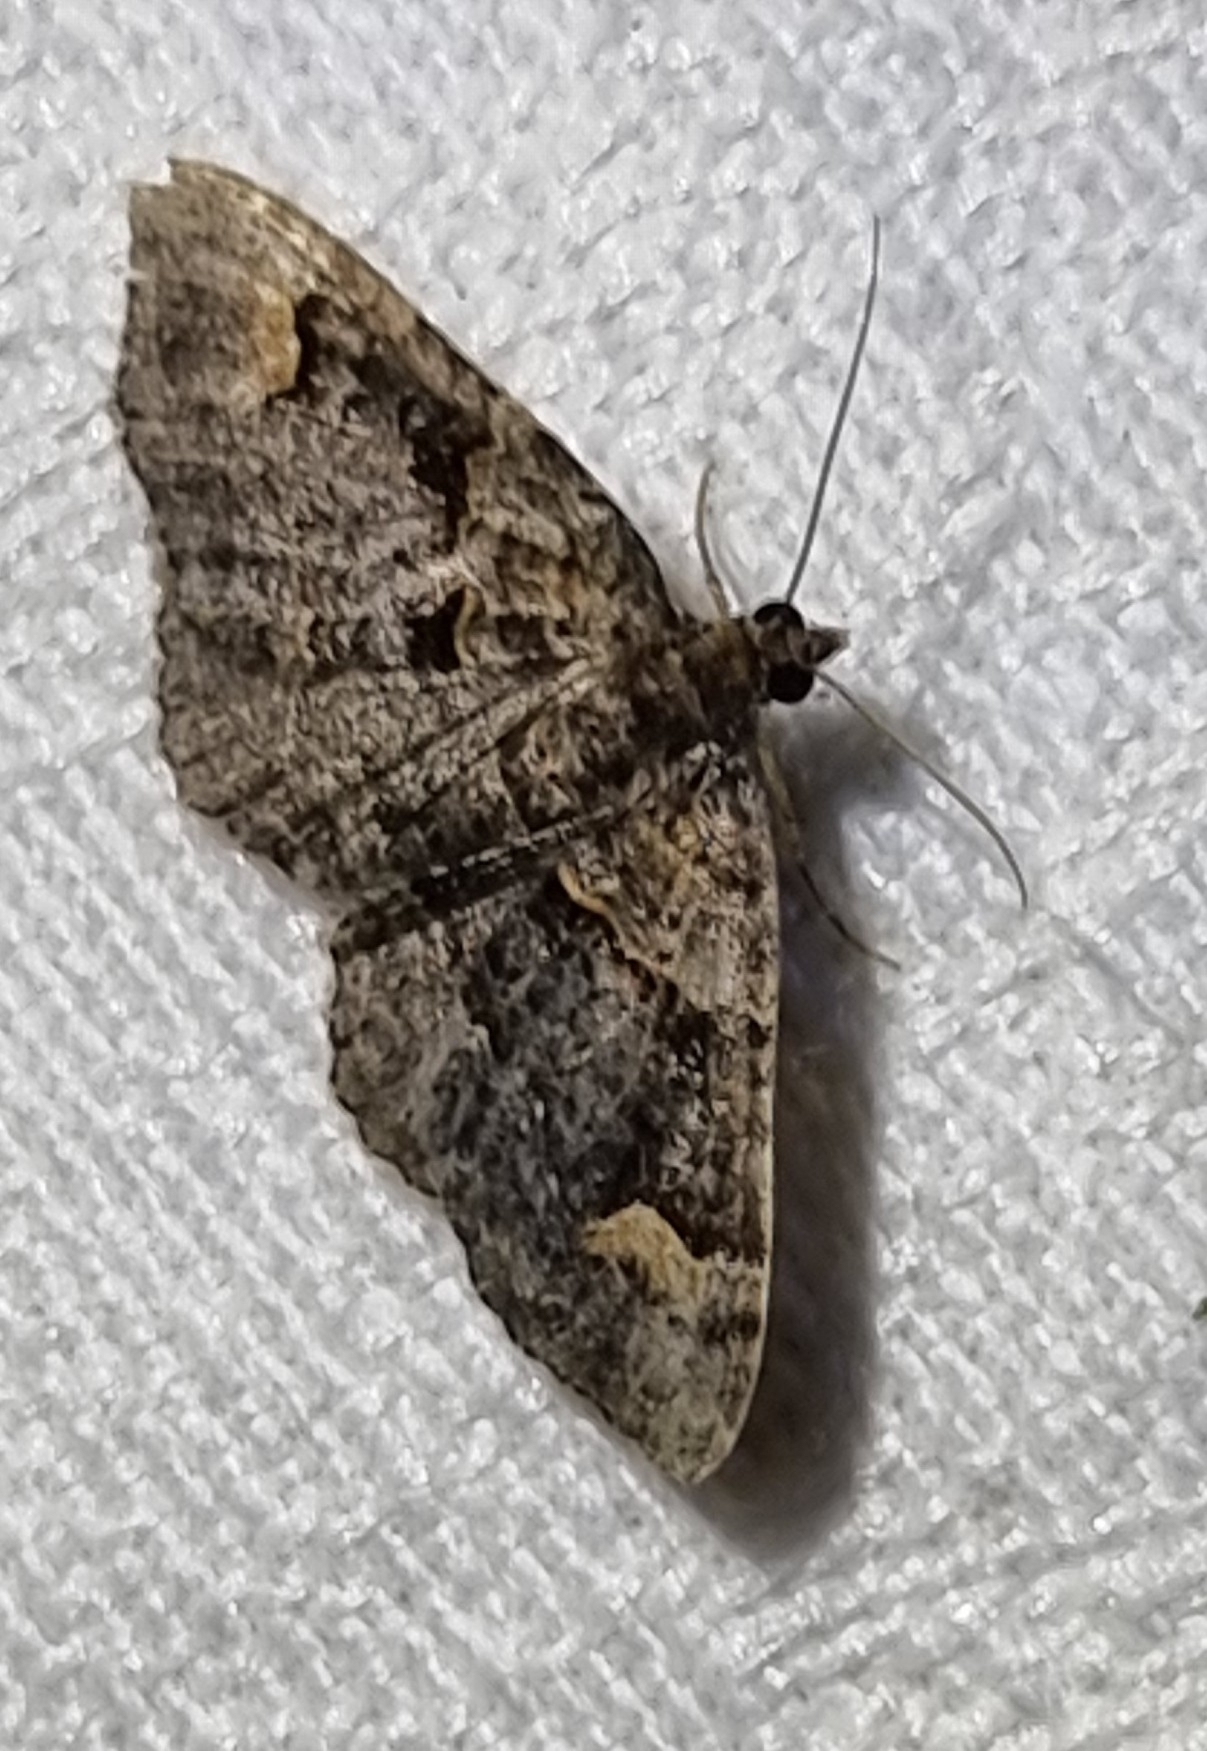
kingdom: Animalia
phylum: Arthropoda
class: Insecta
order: Lepidoptera
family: Geometridae
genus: Epyaxa
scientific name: Epyaxa sodaliata
